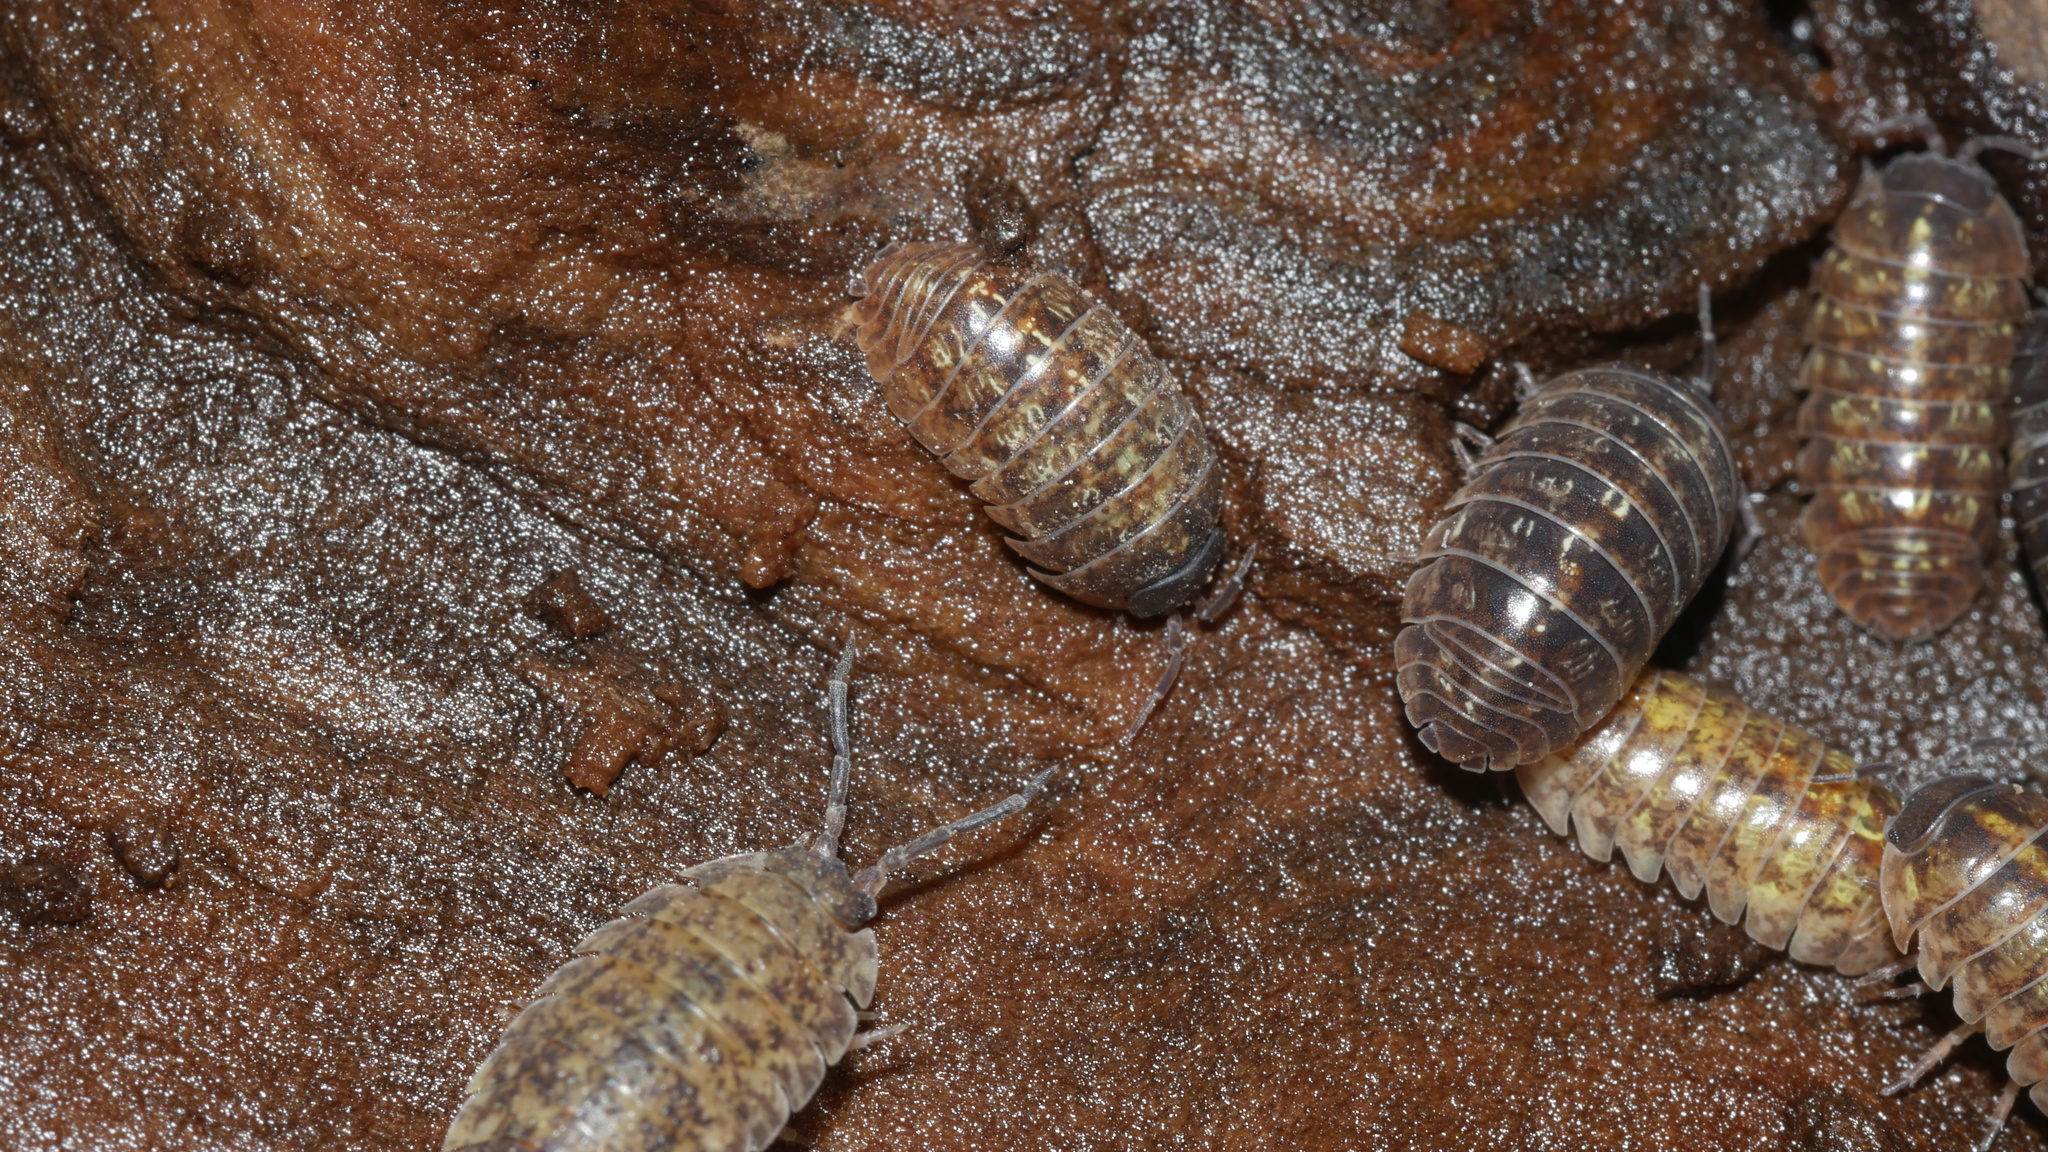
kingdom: Animalia
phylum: Arthropoda
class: Malacostraca
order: Isopoda
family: Armadillidiidae
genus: Armadillidium
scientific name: Armadillidium vulgare
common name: Common pill woodlouse
